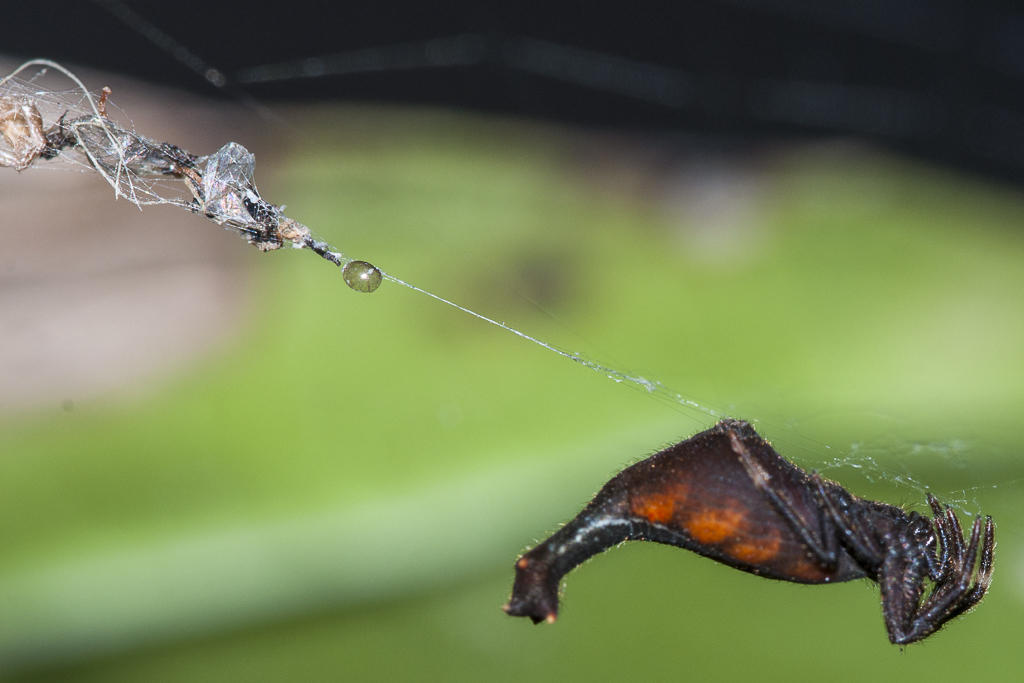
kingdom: Animalia
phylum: Arthropoda
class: Arachnida
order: Araneae
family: Araneidae
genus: Arachnura
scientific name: Arachnura scorpionoides
